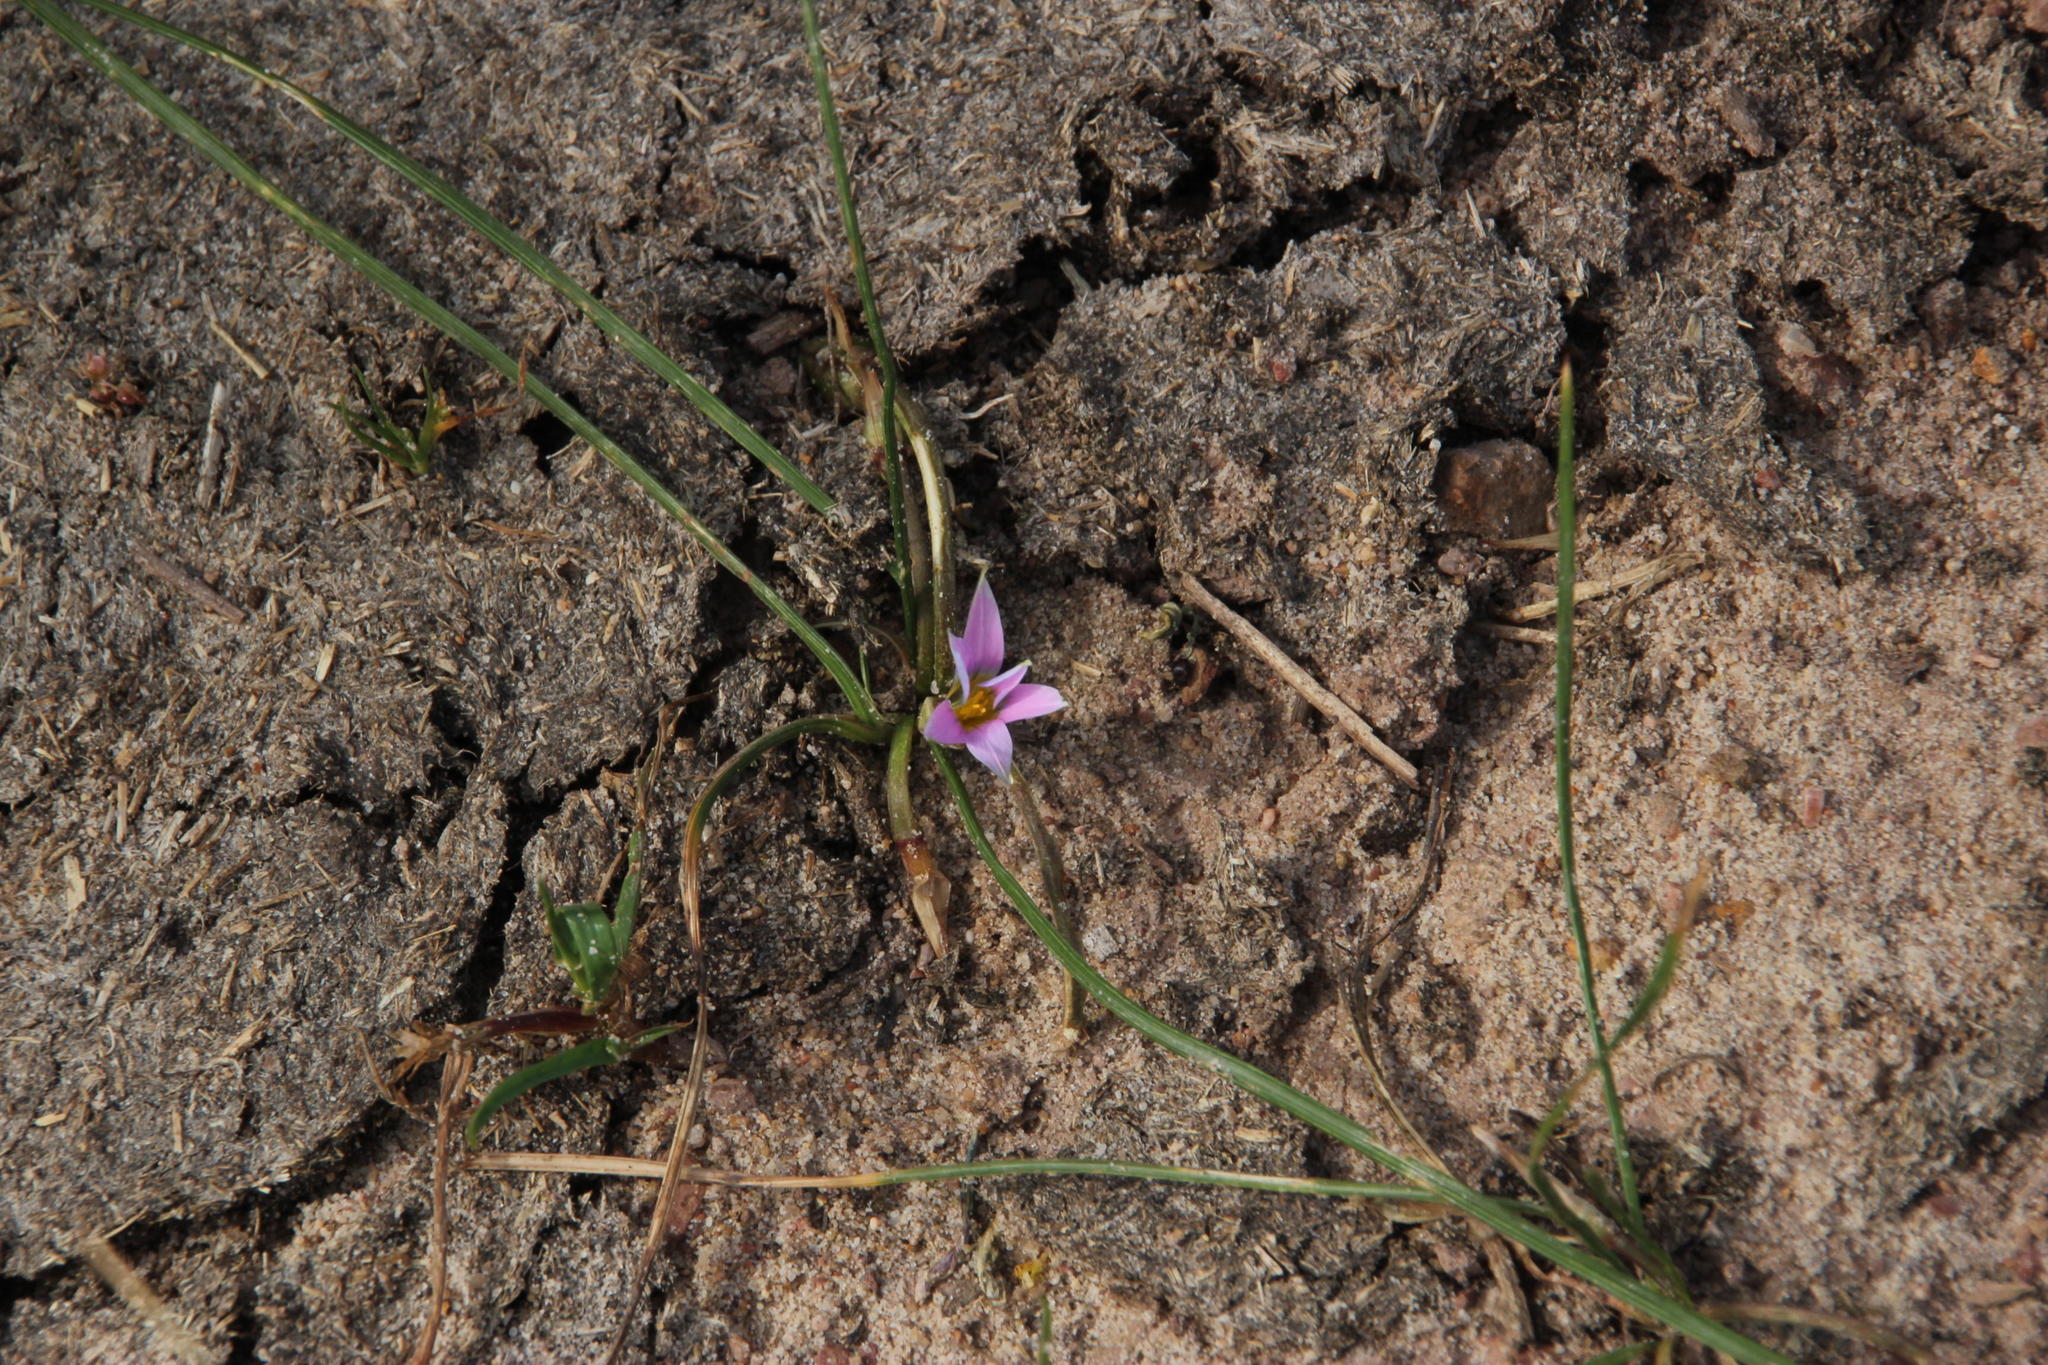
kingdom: Plantae
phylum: Tracheophyta
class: Liliopsida
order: Asparagales
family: Iridaceae
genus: Romulea
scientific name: Romulea rosea
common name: Oniongrass
